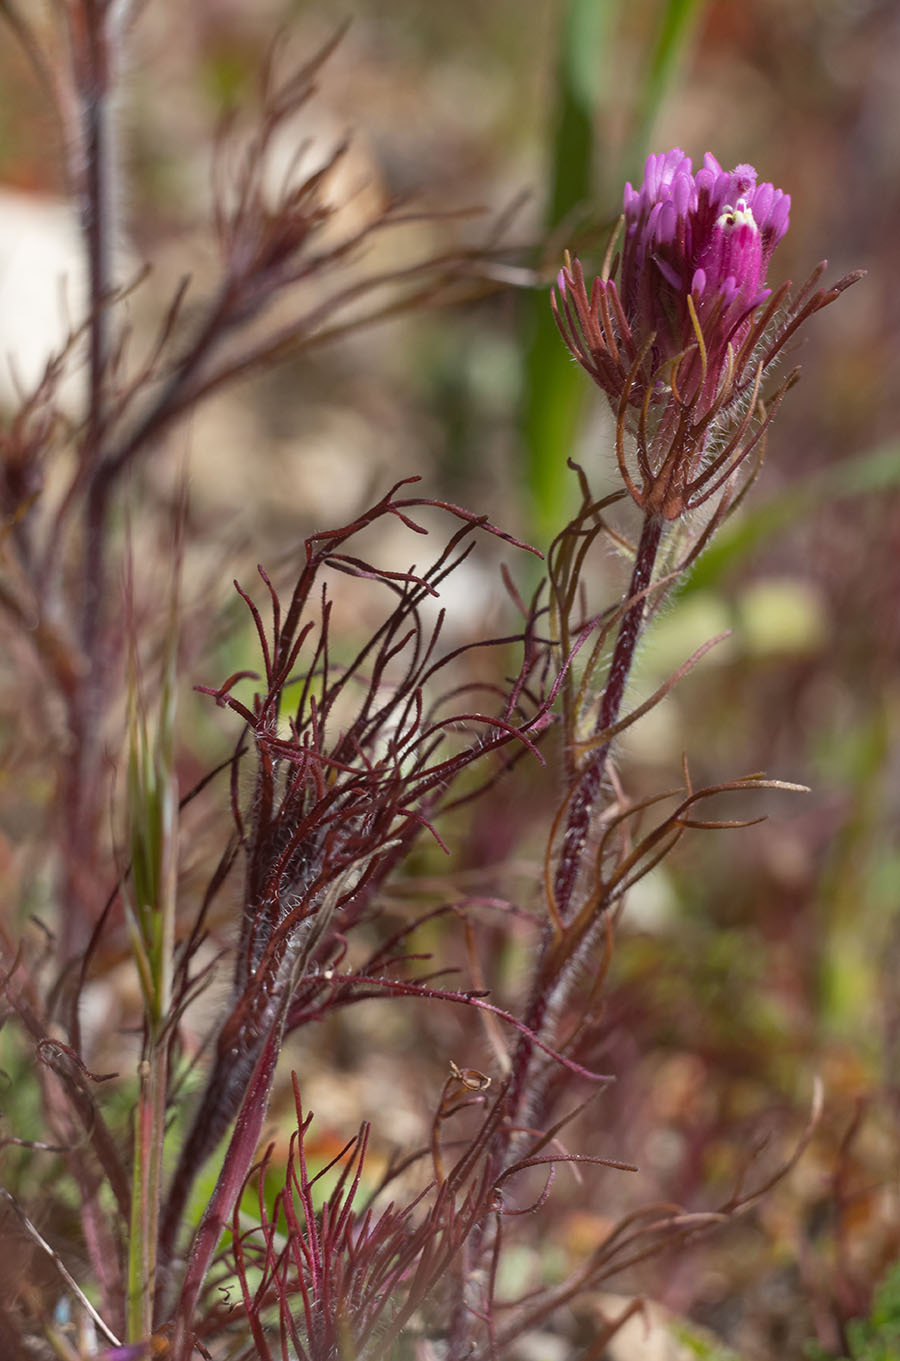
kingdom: Plantae
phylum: Tracheophyta
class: Magnoliopsida
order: Lamiales
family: Orobanchaceae
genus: Castilleja
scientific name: Castilleja exserta
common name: Purple owl-clover
